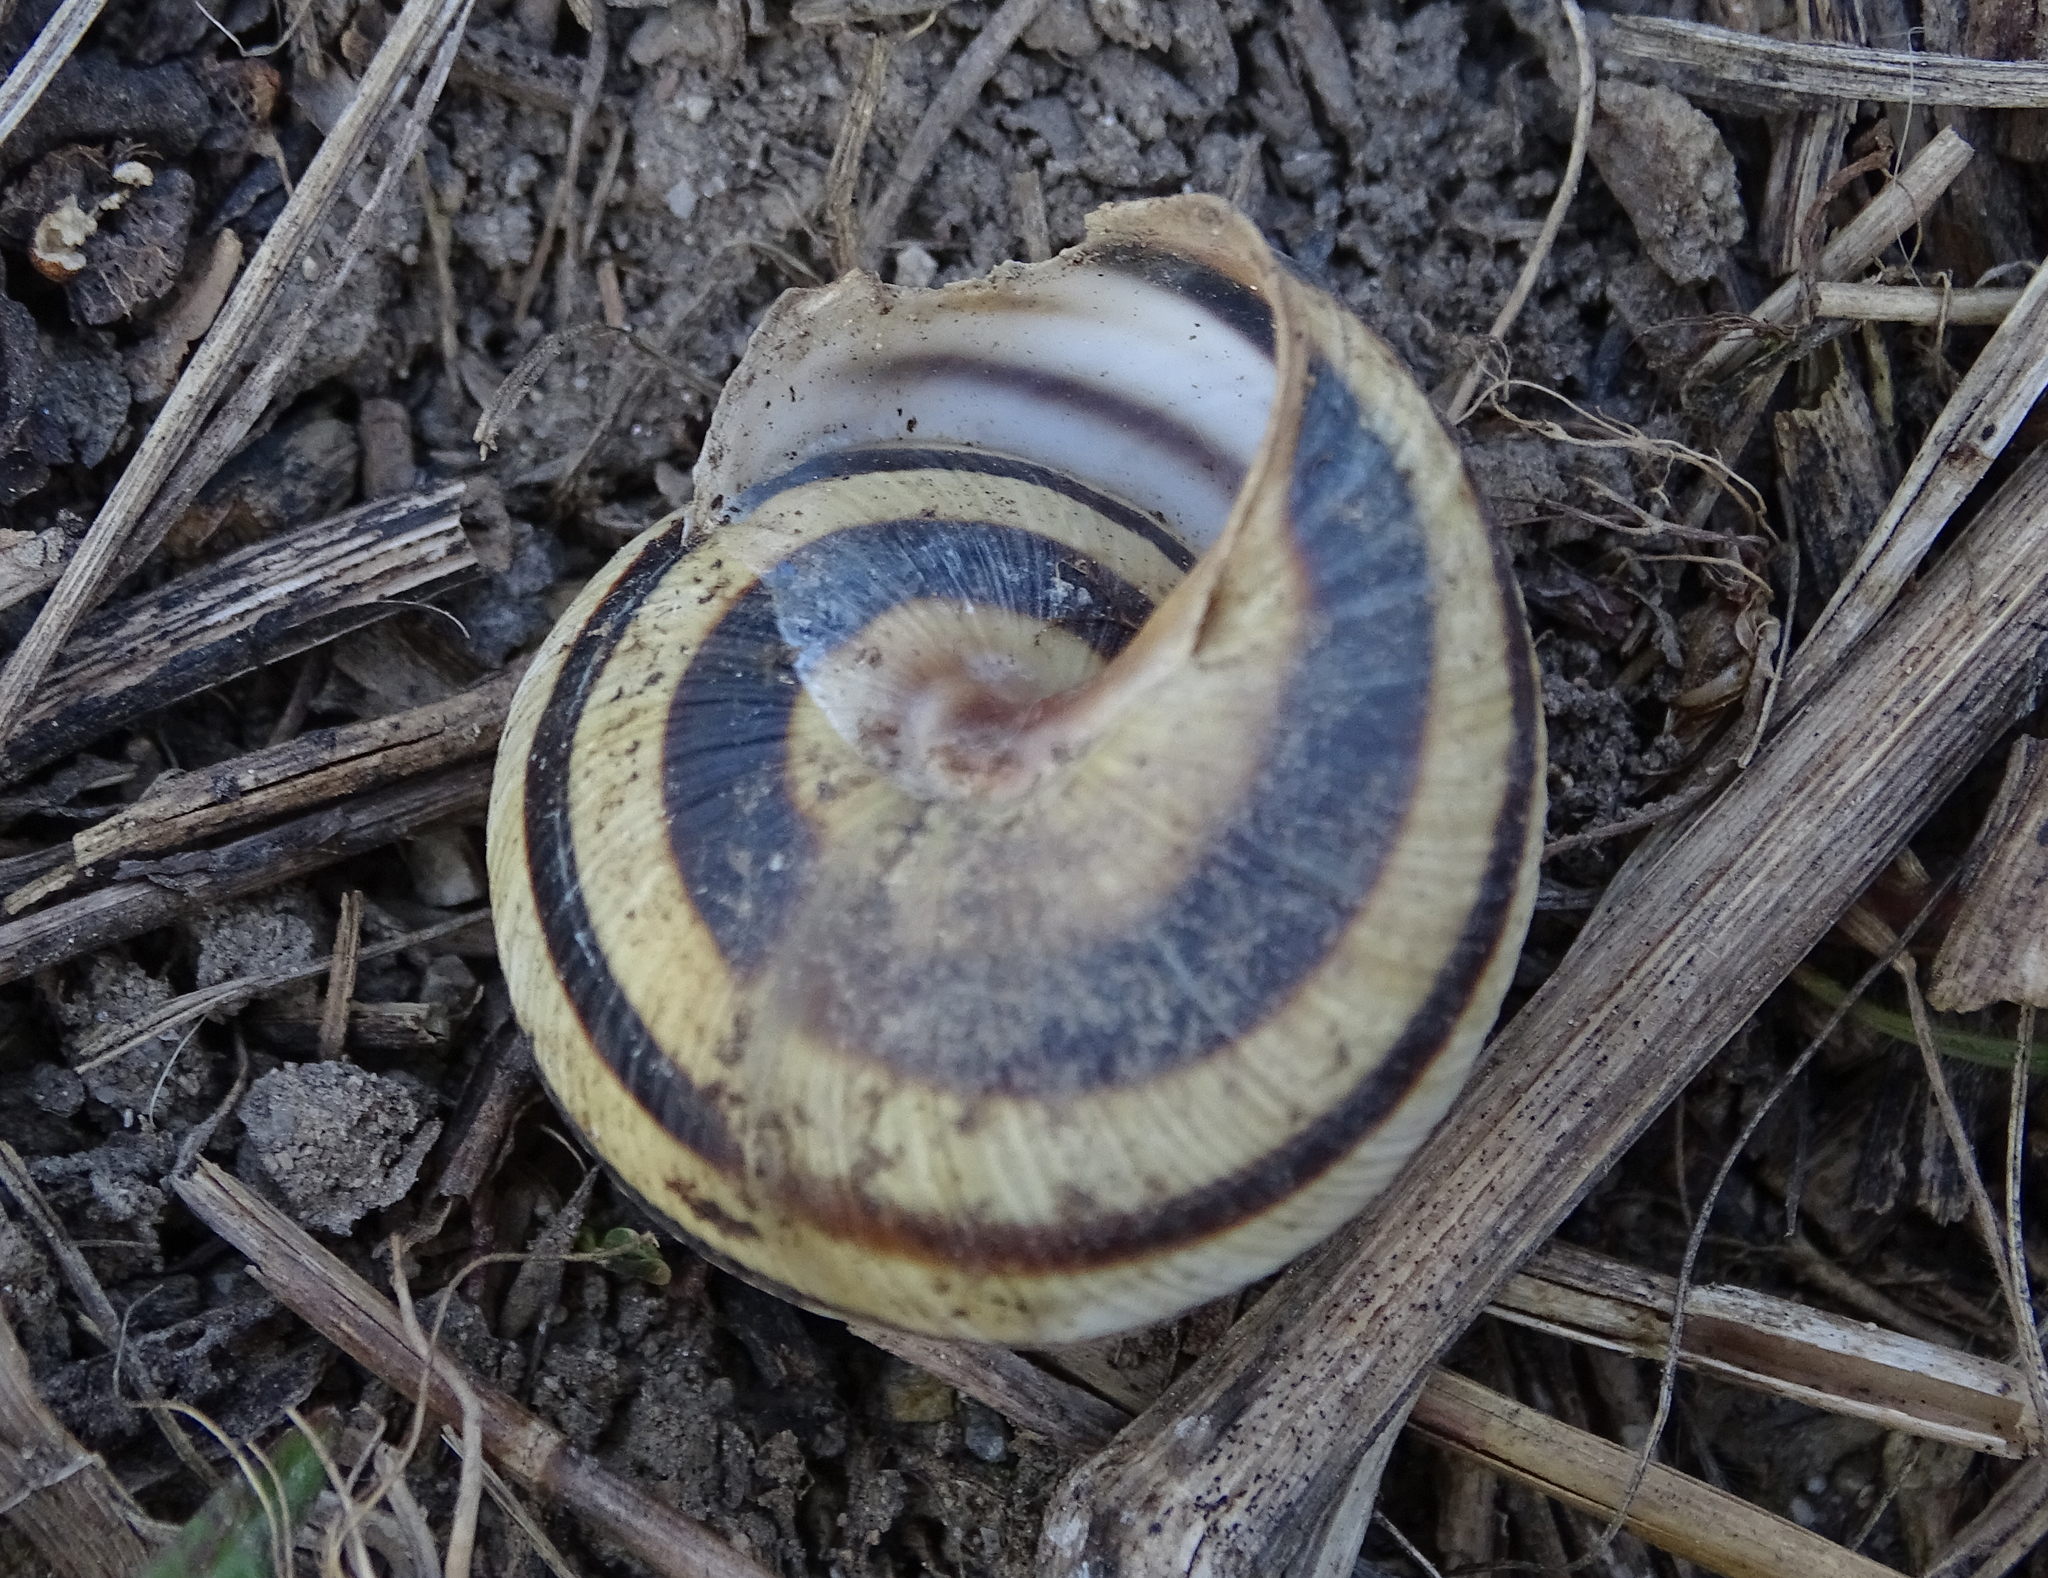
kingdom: Animalia
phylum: Mollusca
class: Gastropoda
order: Stylommatophora
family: Helicidae
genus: Caucasotachea
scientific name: Caucasotachea vindobonensis
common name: European helicid land snail
